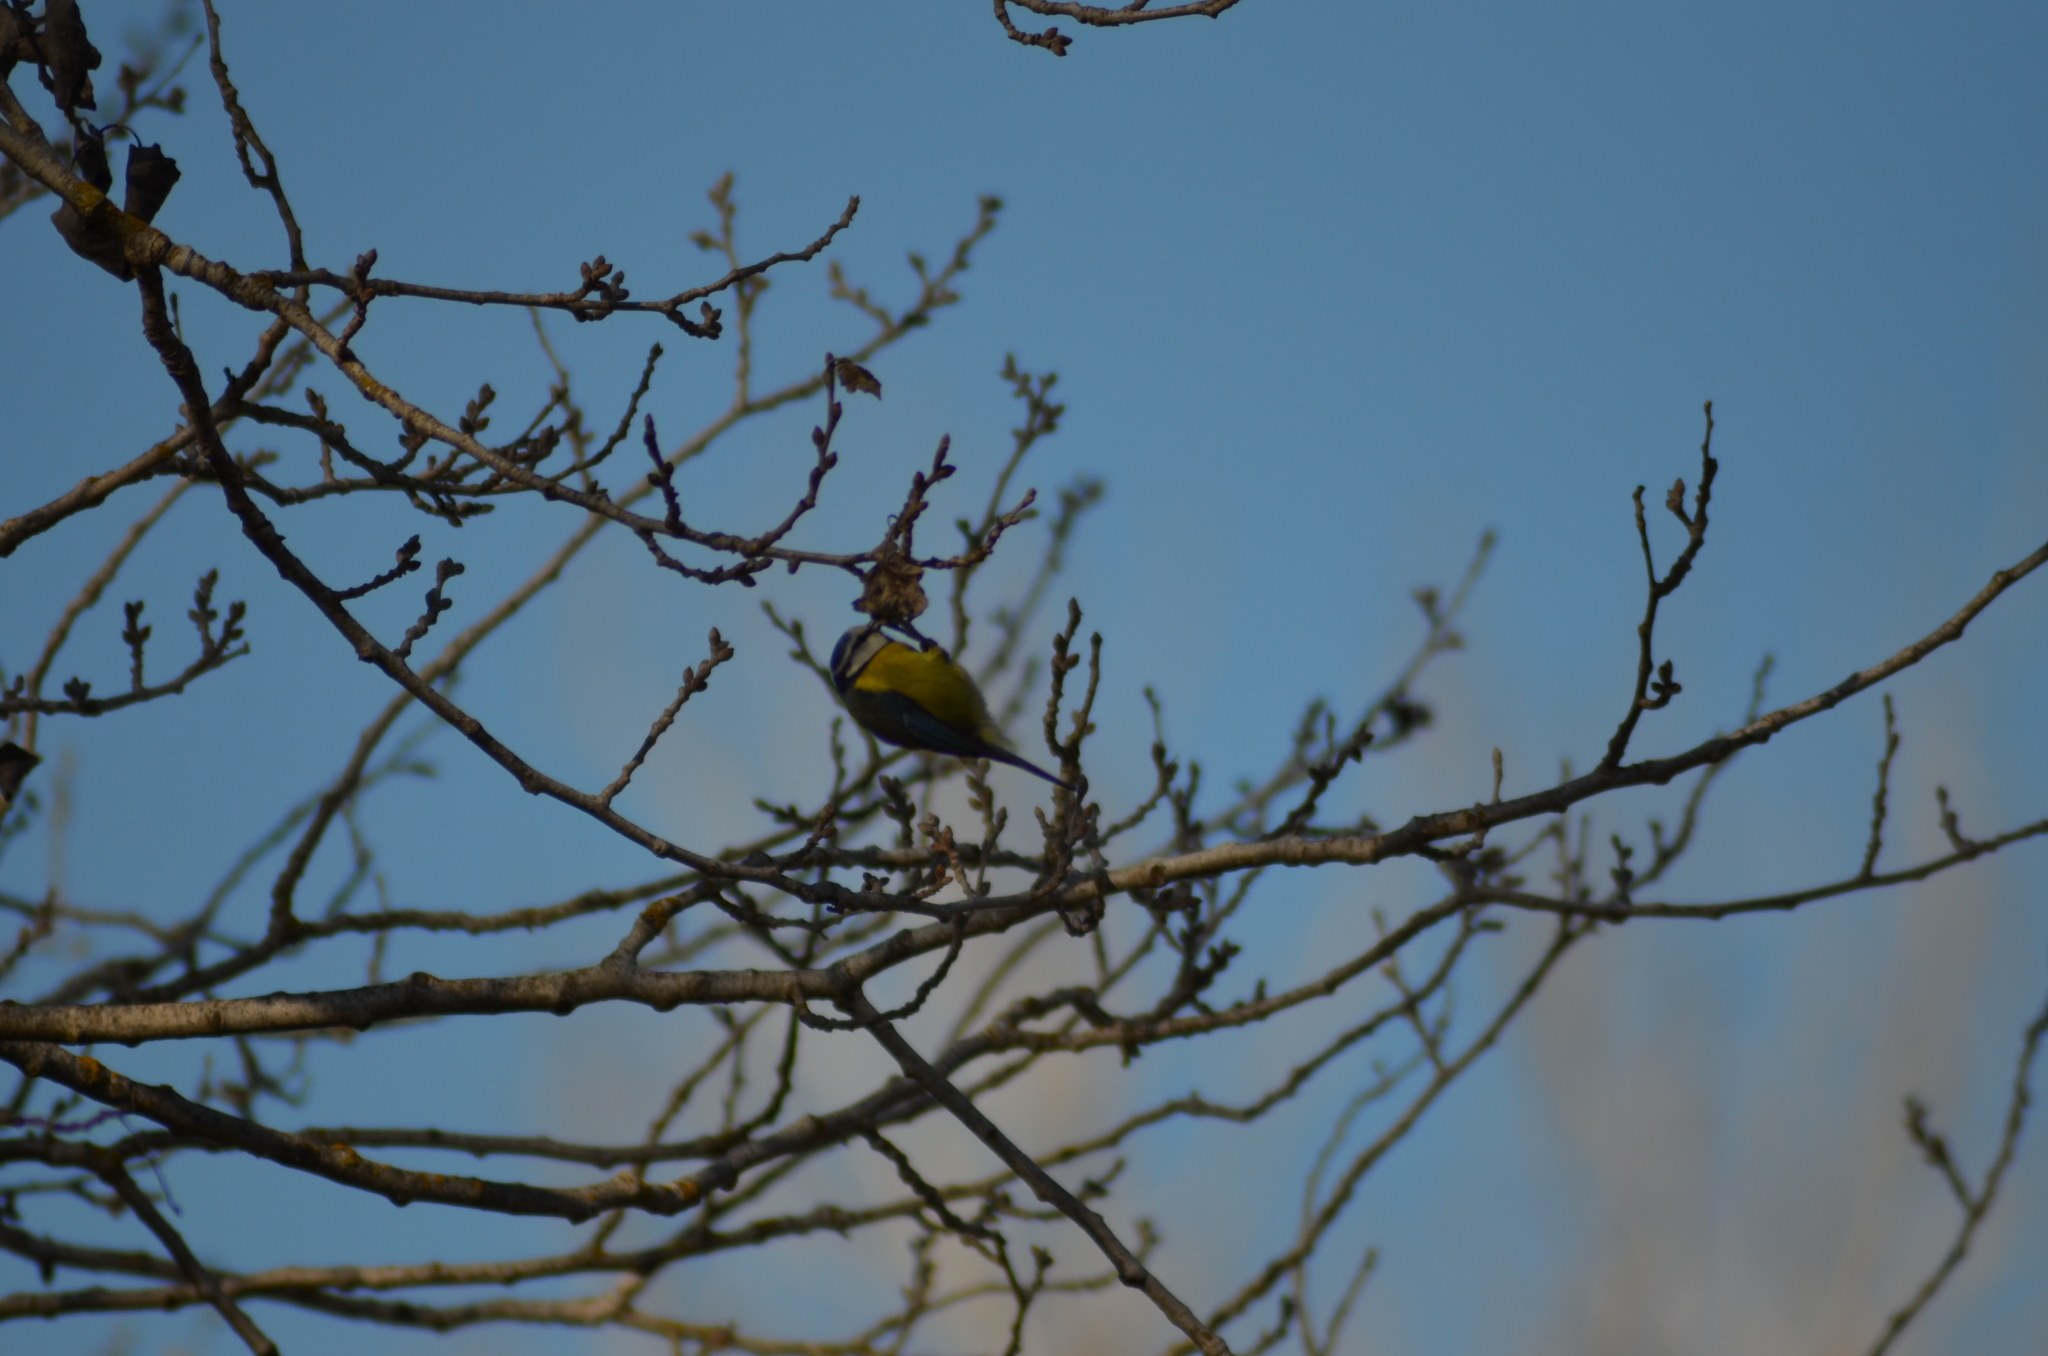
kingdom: Animalia
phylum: Chordata
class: Aves
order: Passeriformes
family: Paridae
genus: Cyanistes
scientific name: Cyanistes caeruleus
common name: Eurasian blue tit
